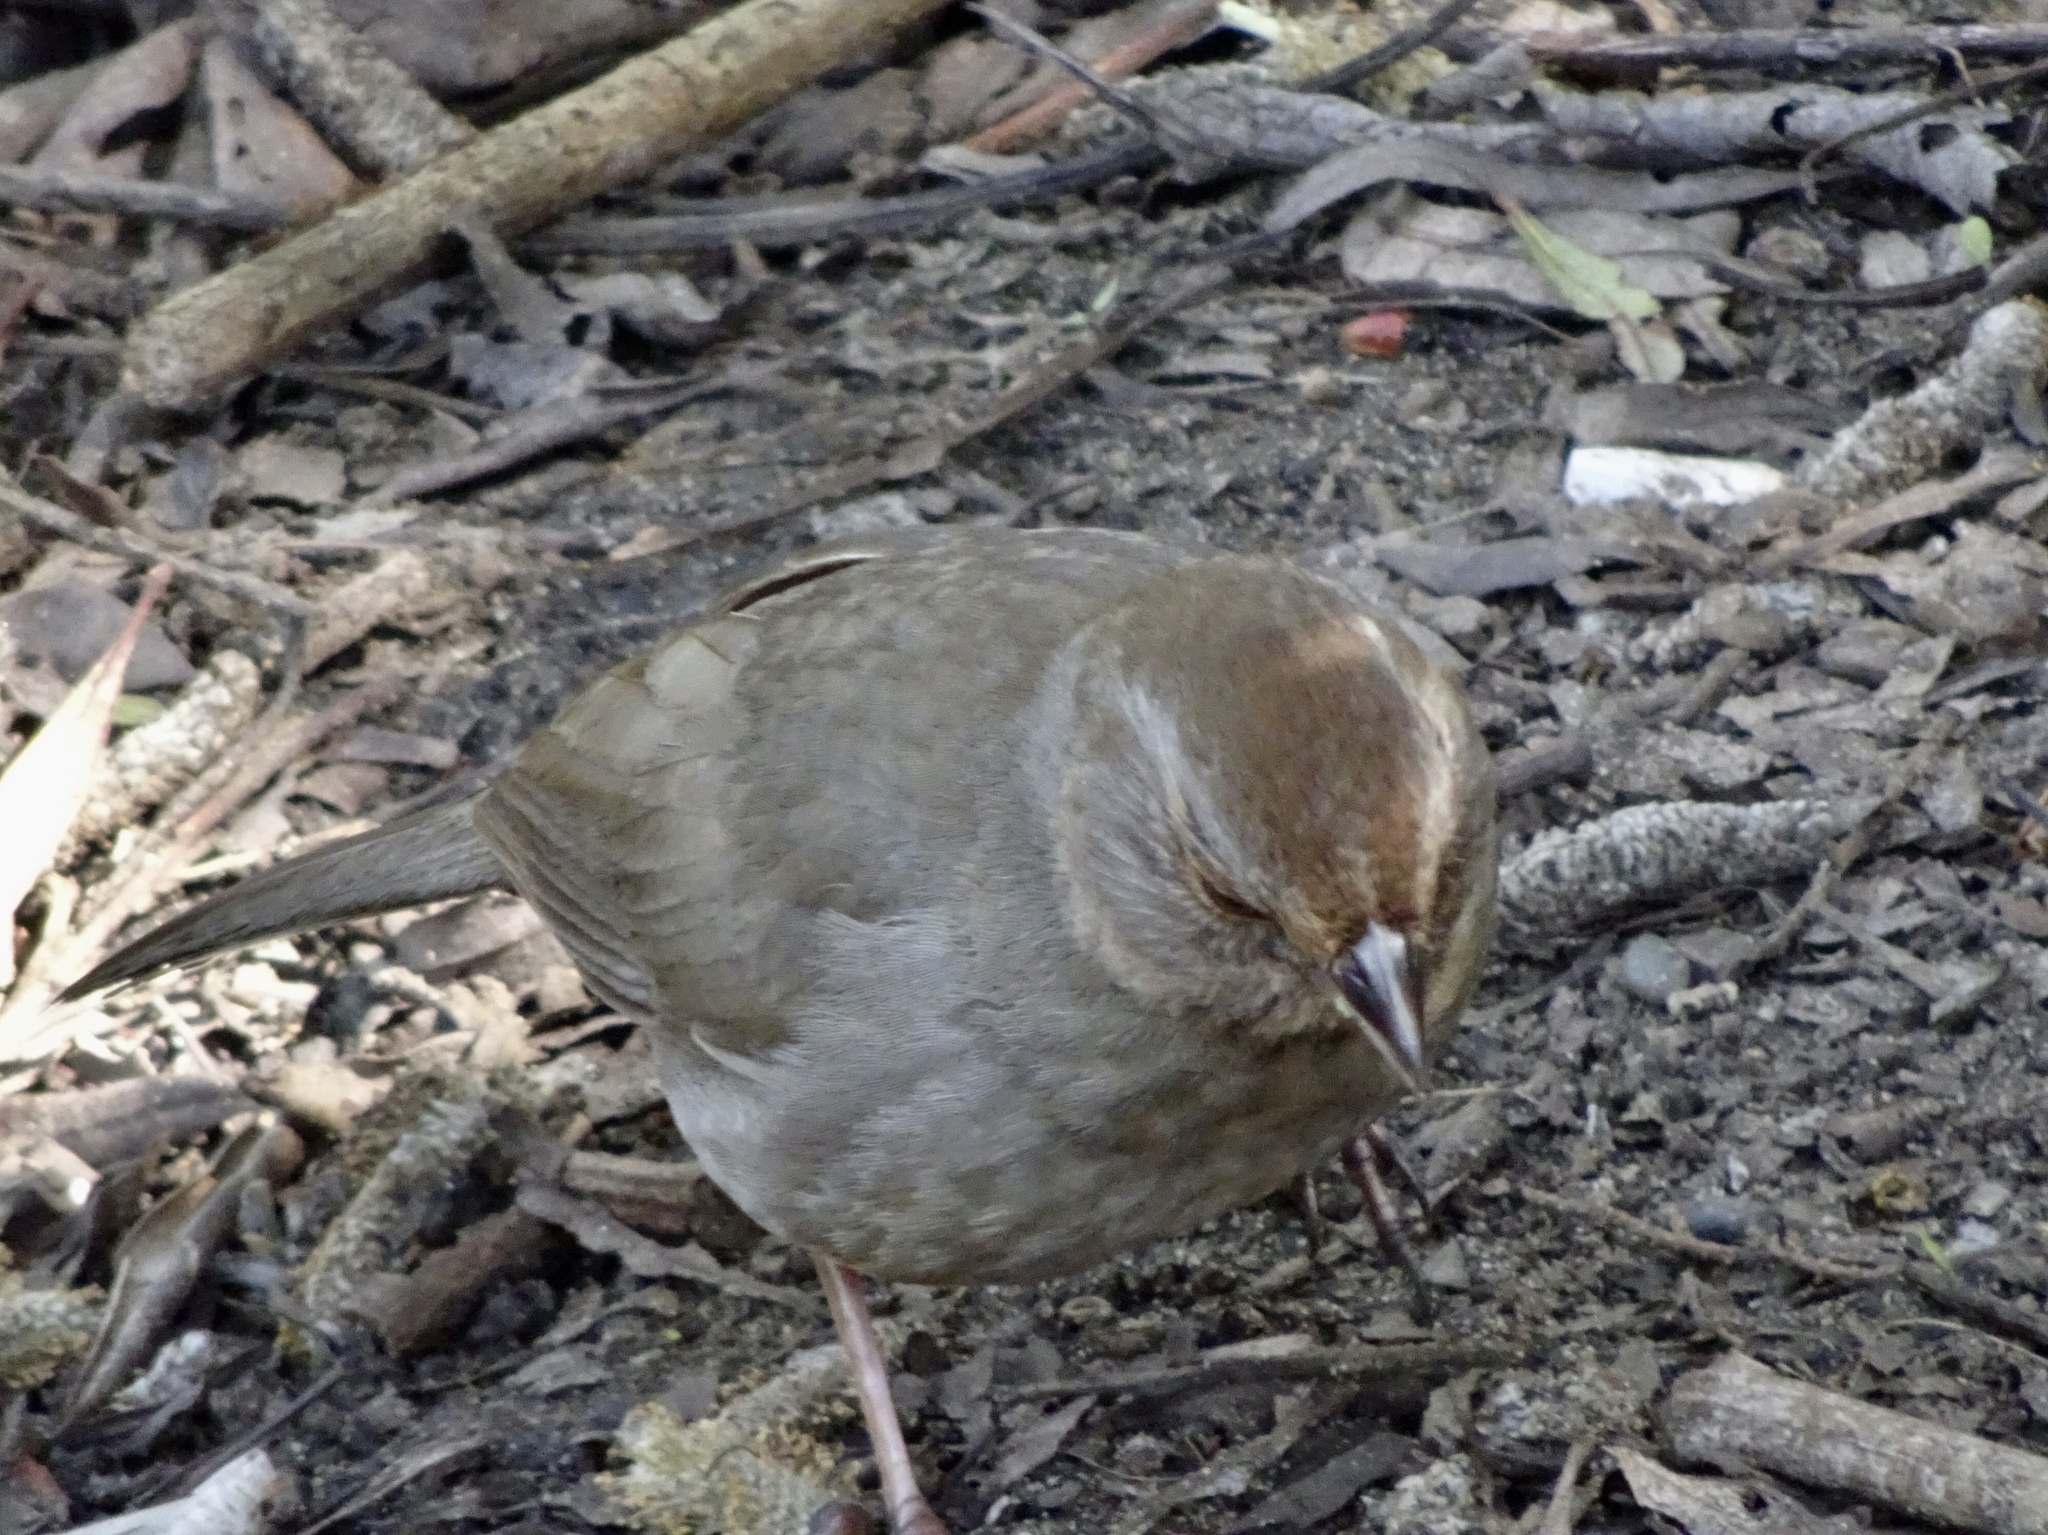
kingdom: Animalia
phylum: Chordata
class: Aves
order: Passeriformes
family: Passerellidae
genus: Melozone
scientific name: Melozone crissalis
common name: California towhee
